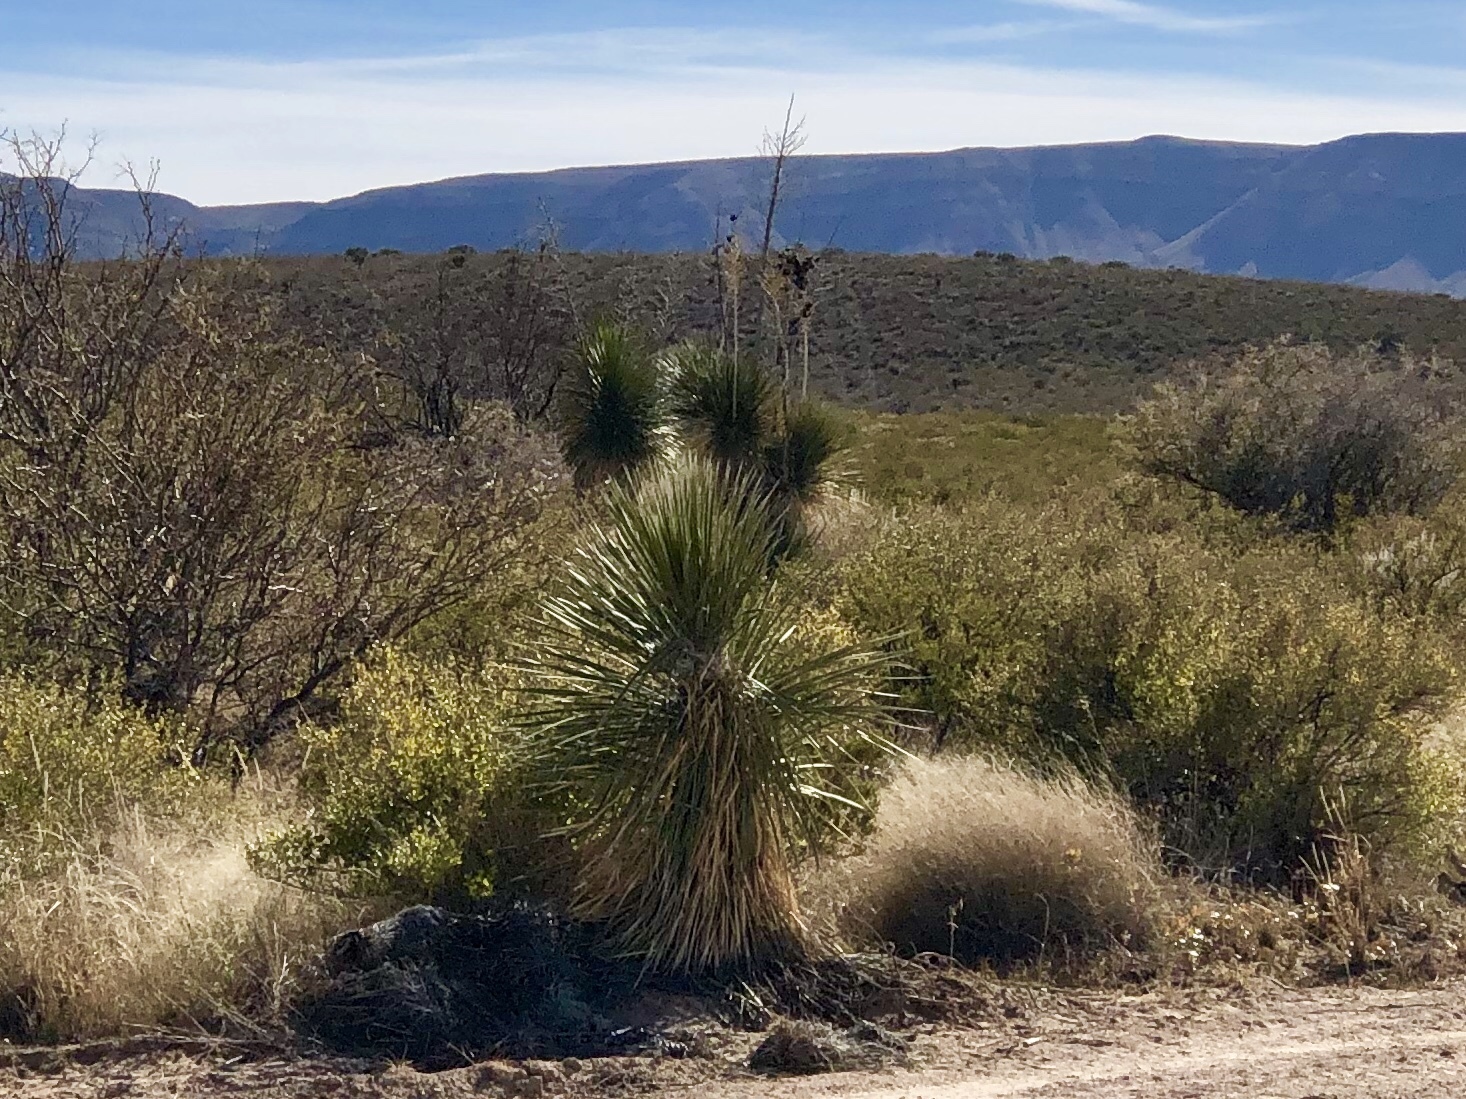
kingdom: Plantae
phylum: Tracheophyta
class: Liliopsida
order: Asparagales
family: Asparagaceae
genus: Yucca
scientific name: Yucca elata
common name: Palmella
